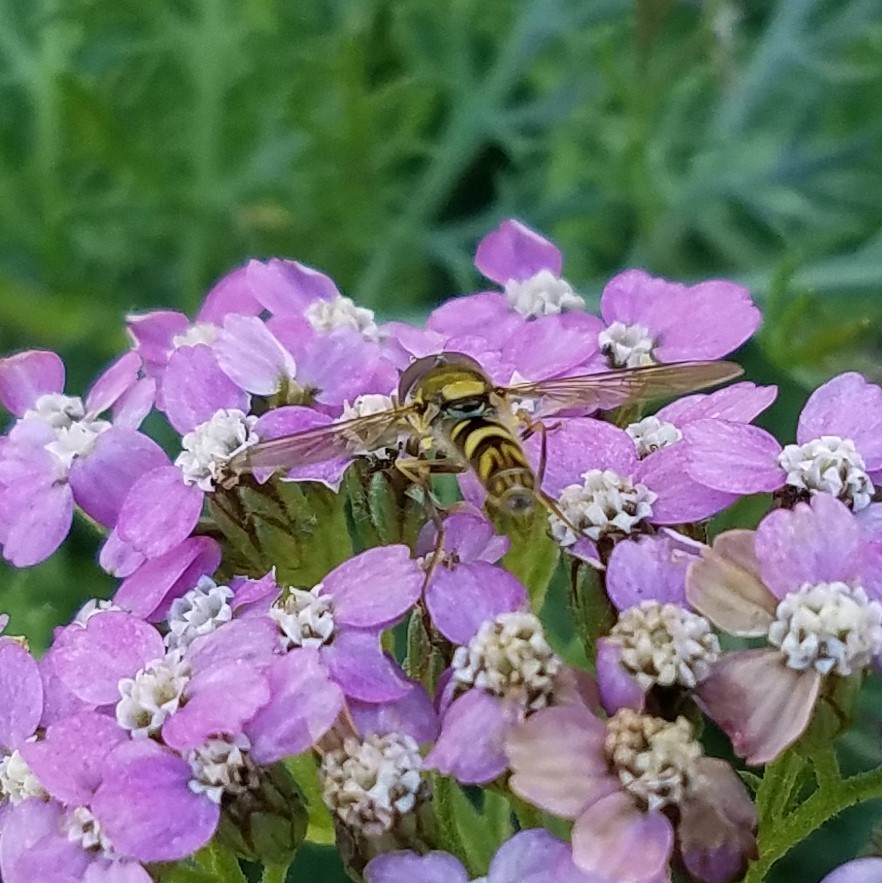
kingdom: Animalia
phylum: Arthropoda
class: Insecta
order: Diptera
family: Syrphidae
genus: Allograpta
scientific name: Allograpta exotica
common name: Syrphid fly
